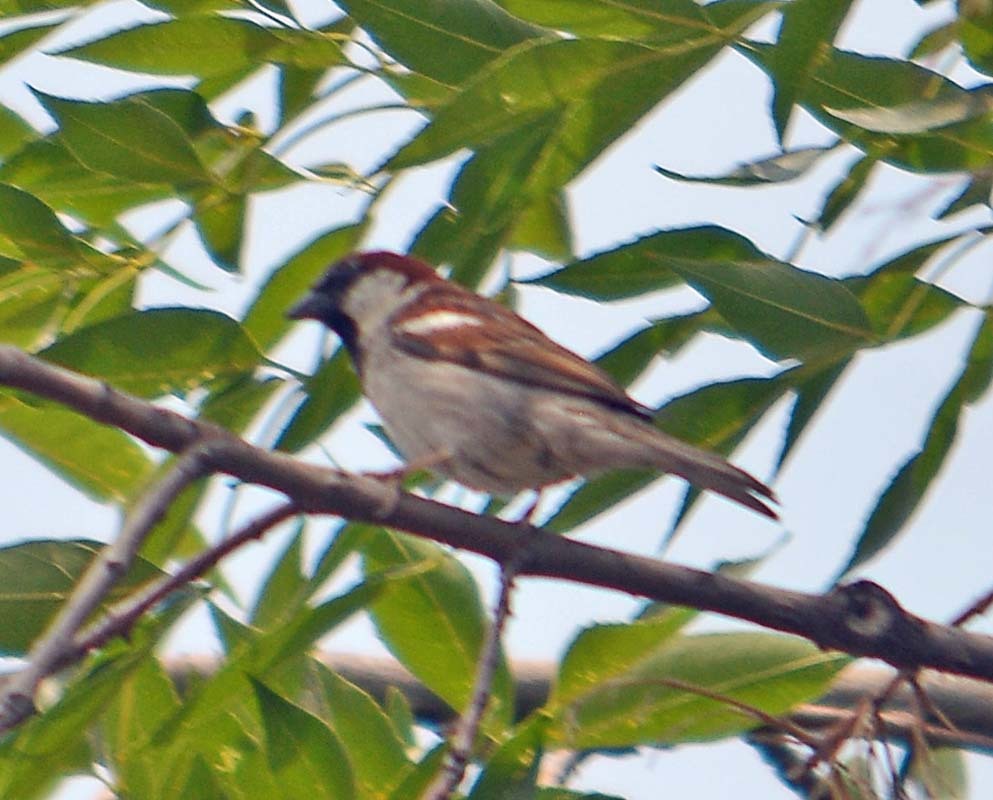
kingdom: Animalia
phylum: Chordata
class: Aves
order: Passeriformes
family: Passeridae
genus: Passer
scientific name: Passer domesticus
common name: House sparrow
